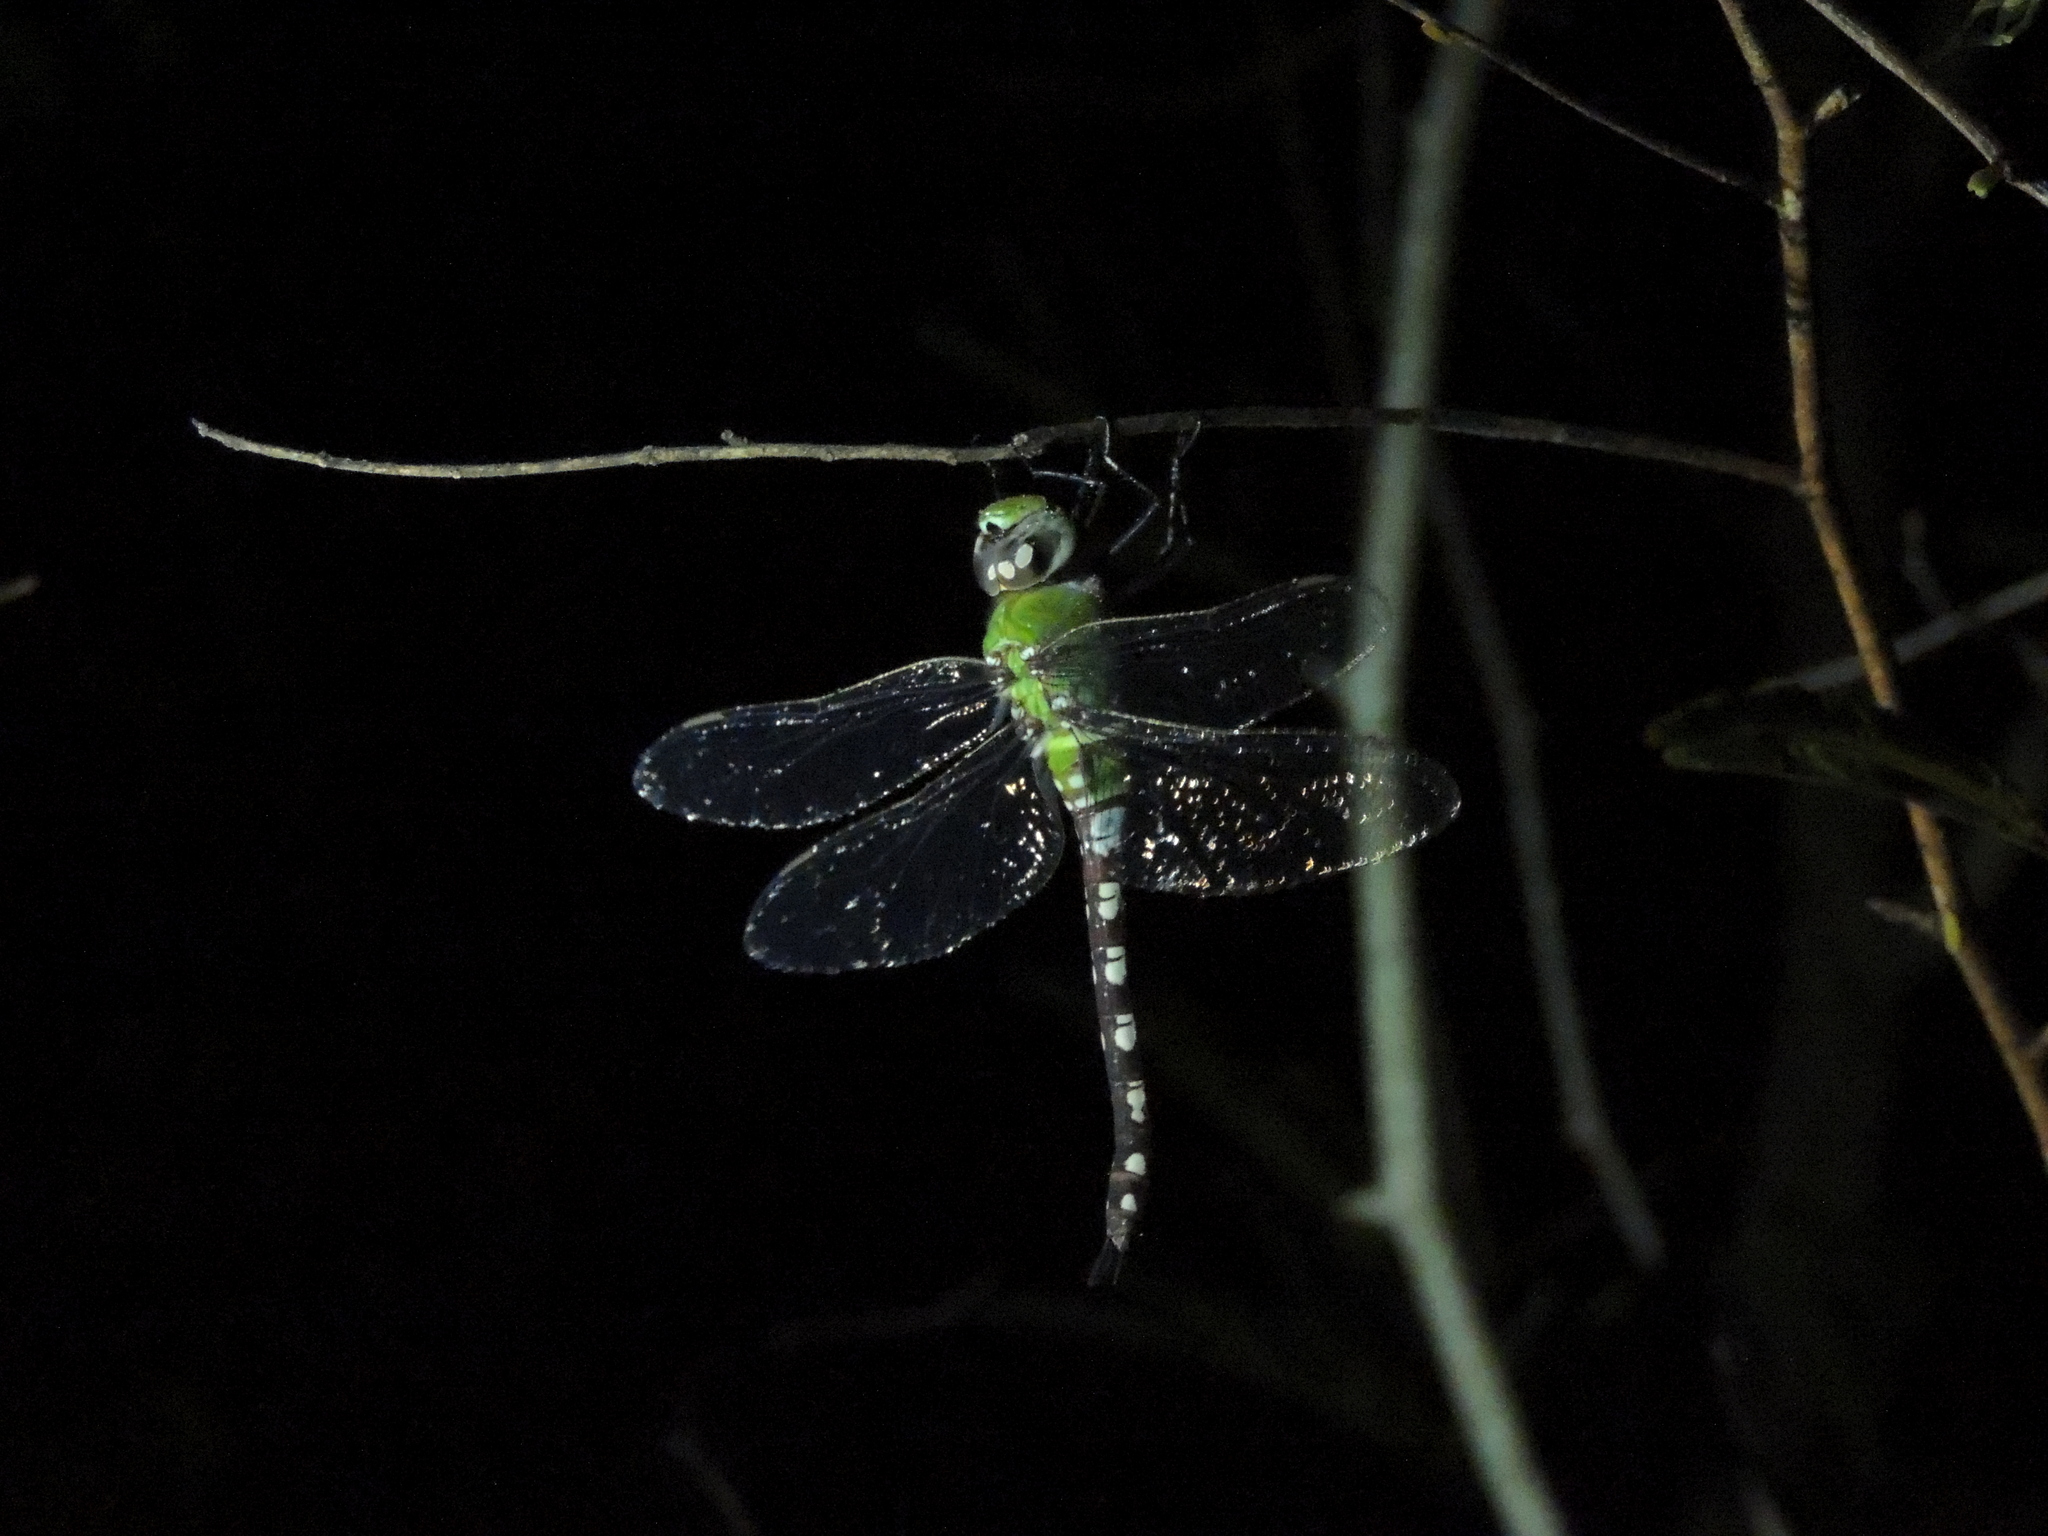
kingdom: Animalia
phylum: Arthropoda
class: Insecta
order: Odonata
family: Aeshnidae
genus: Anax
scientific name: Anax amazili
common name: Amazon darner
